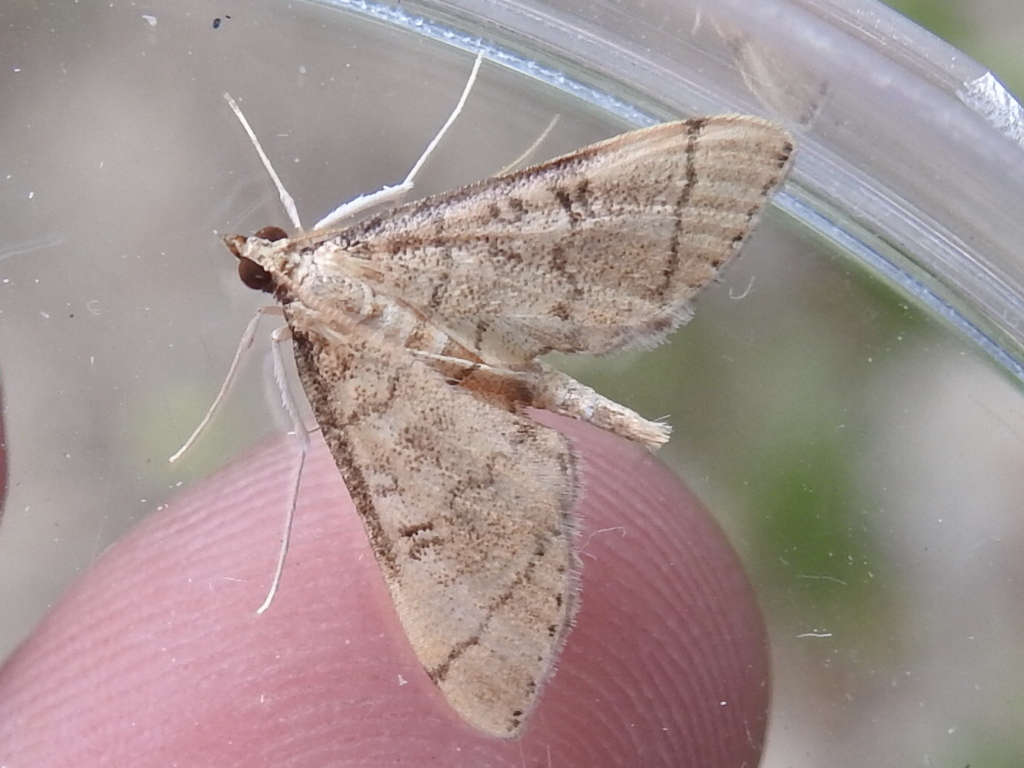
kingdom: Animalia
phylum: Arthropoda
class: Insecta
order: Lepidoptera
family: Crambidae
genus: Lamprosema
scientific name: Lamprosema Blepharomastix ranalis
